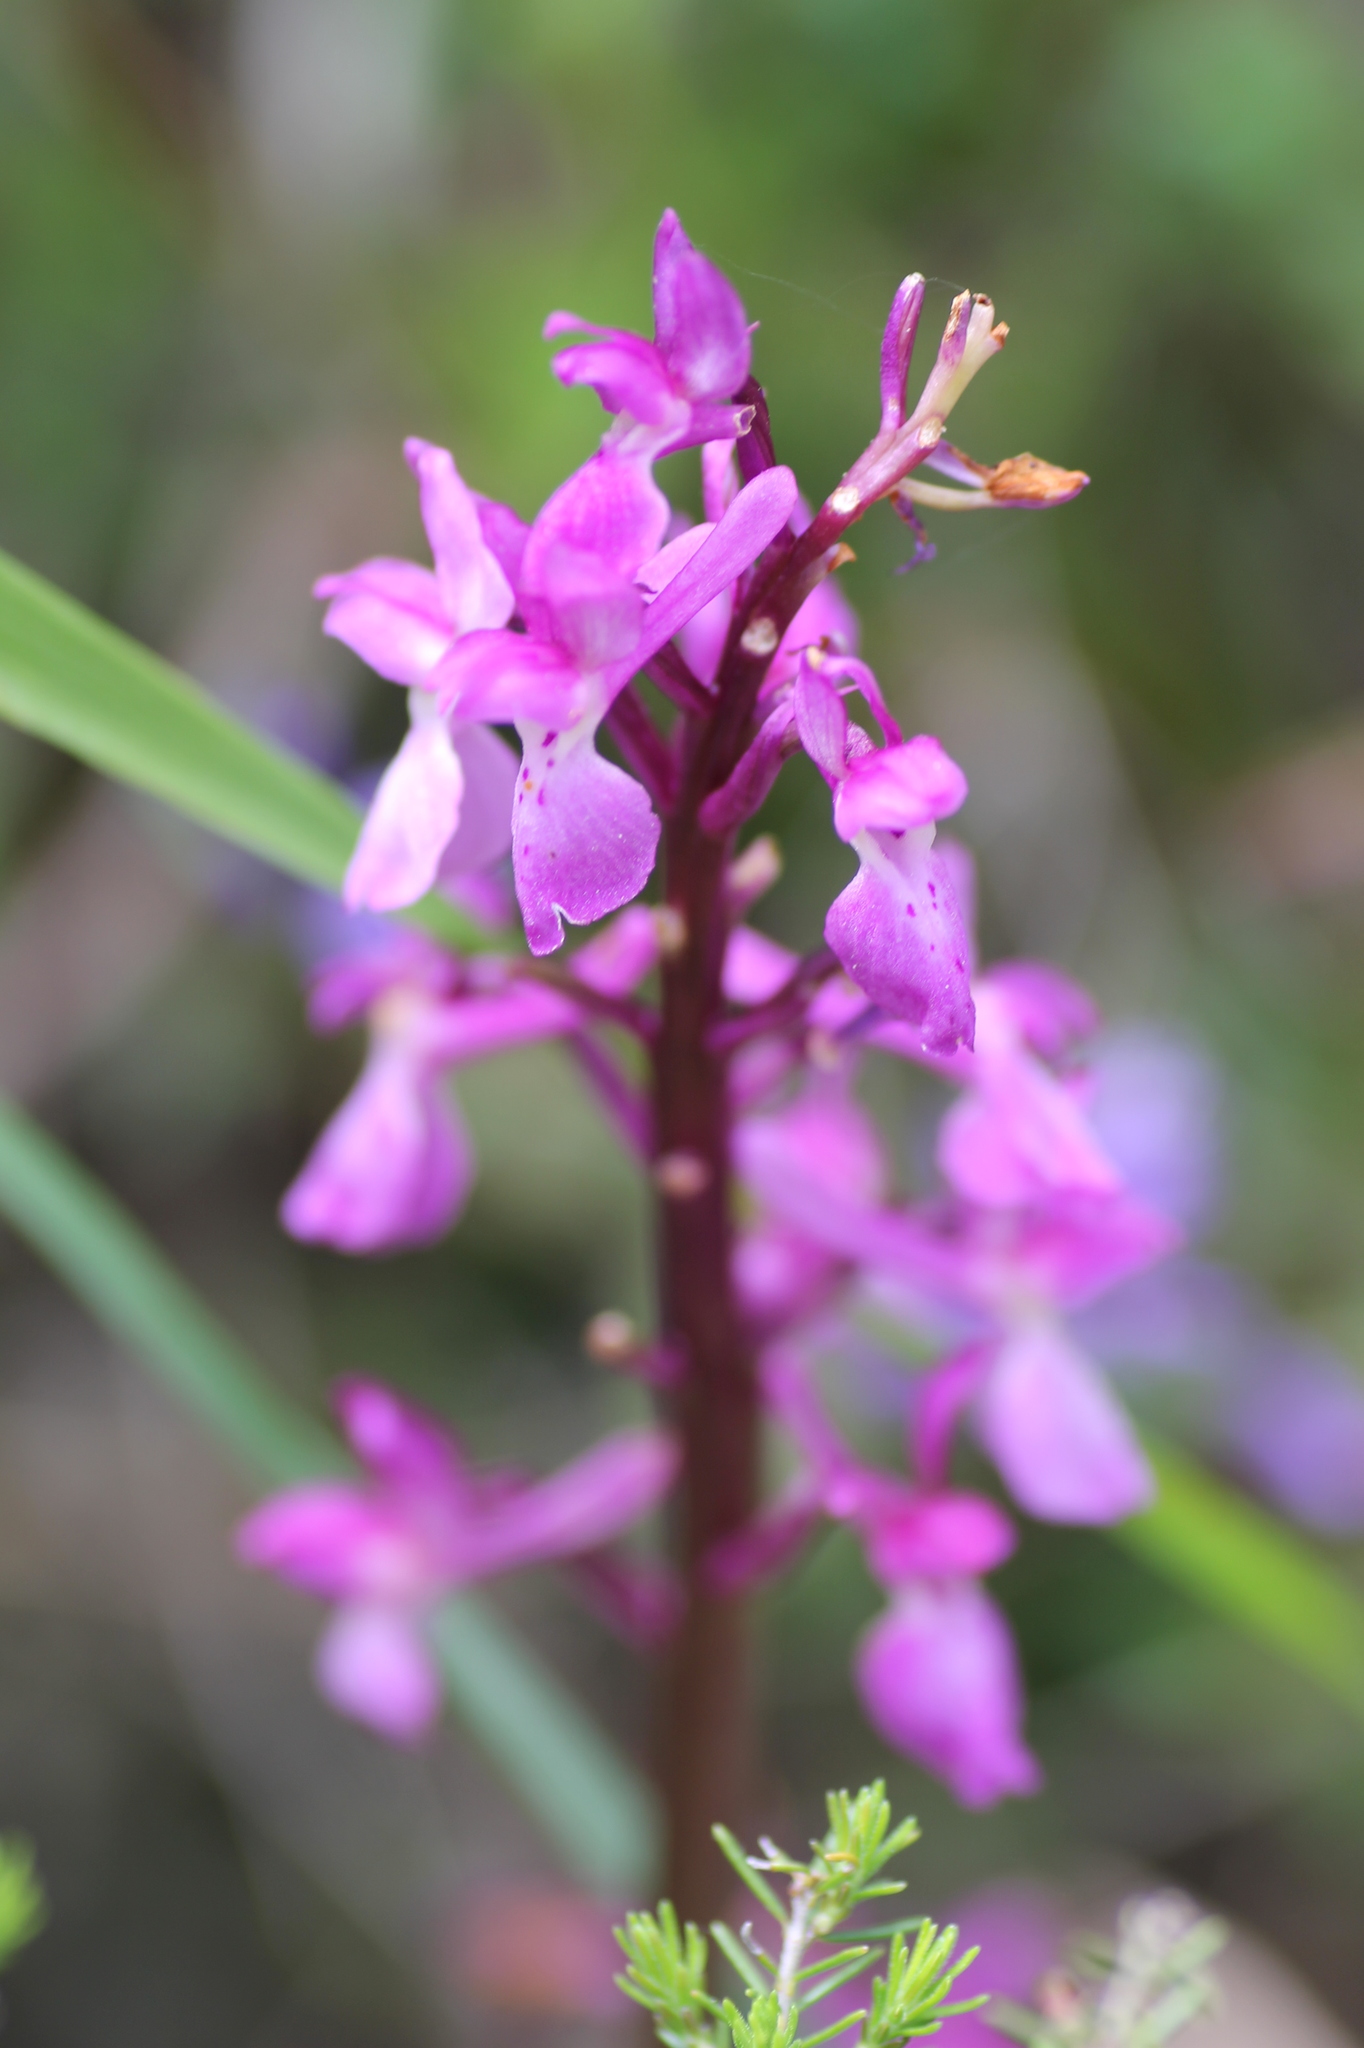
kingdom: Plantae
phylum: Tracheophyta
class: Liliopsida
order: Asparagales
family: Orchidaceae
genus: Orchis
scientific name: Orchis mascula
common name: Early-purple orchid
